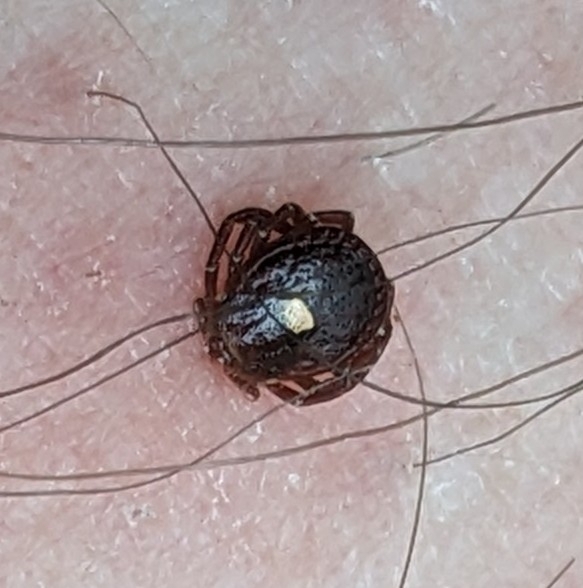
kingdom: Animalia
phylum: Arthropoda
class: Arachnida
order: Ixodida
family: Ixodidae
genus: Amblyomma
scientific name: Amblyomma americanum
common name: Lone star tick
